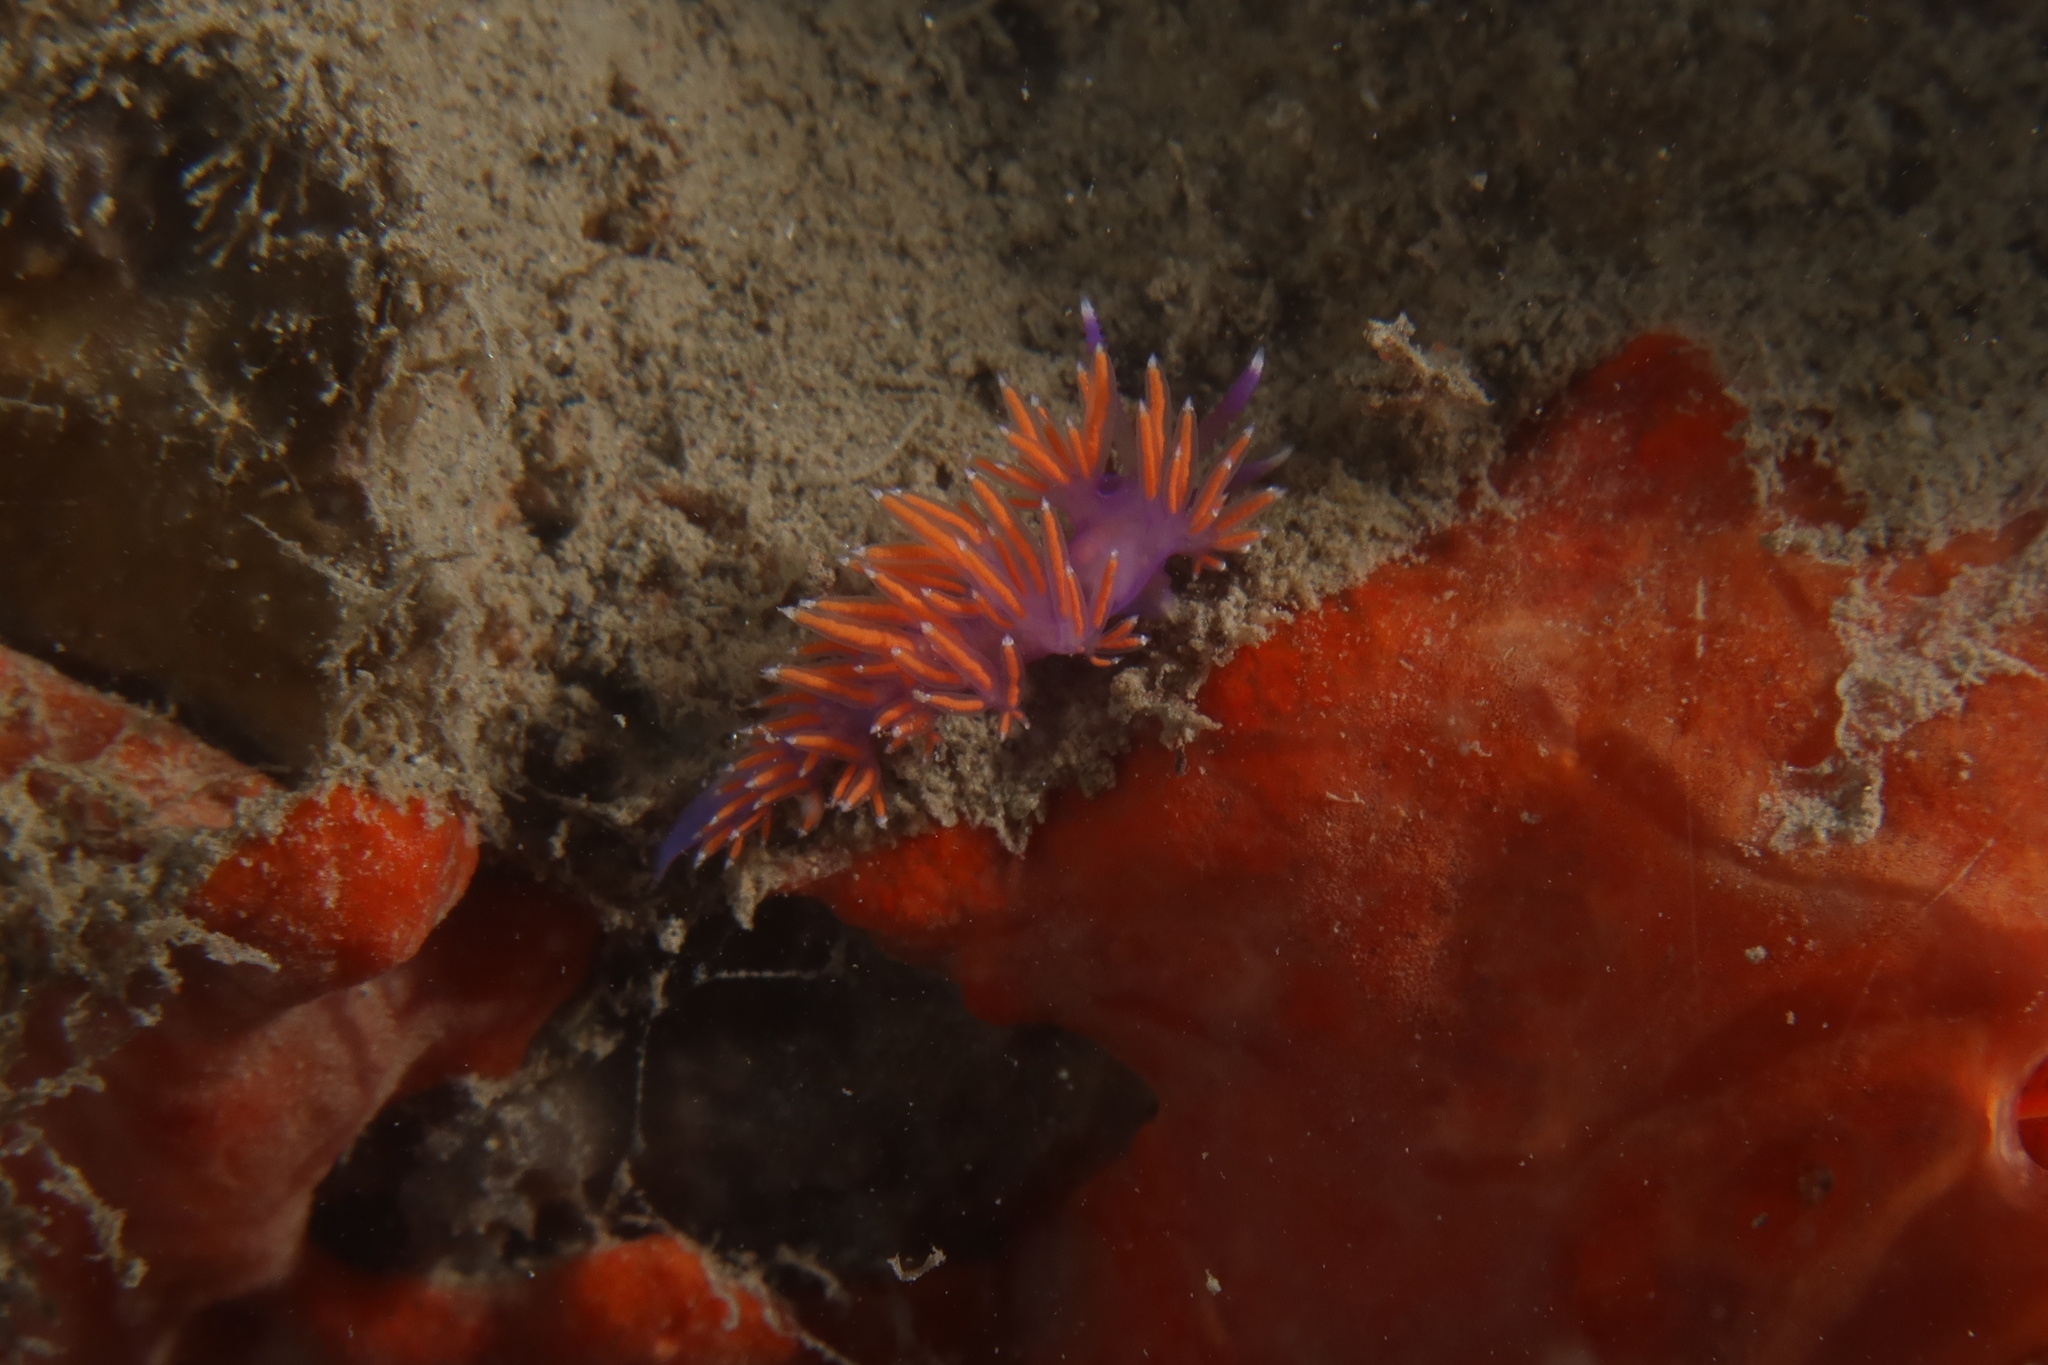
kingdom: Animalia
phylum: Mollusca
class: Gastropoda
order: Nudibranchia
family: Flabellinidae
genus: Paraflabellina
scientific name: Paraflabellina ischitana
